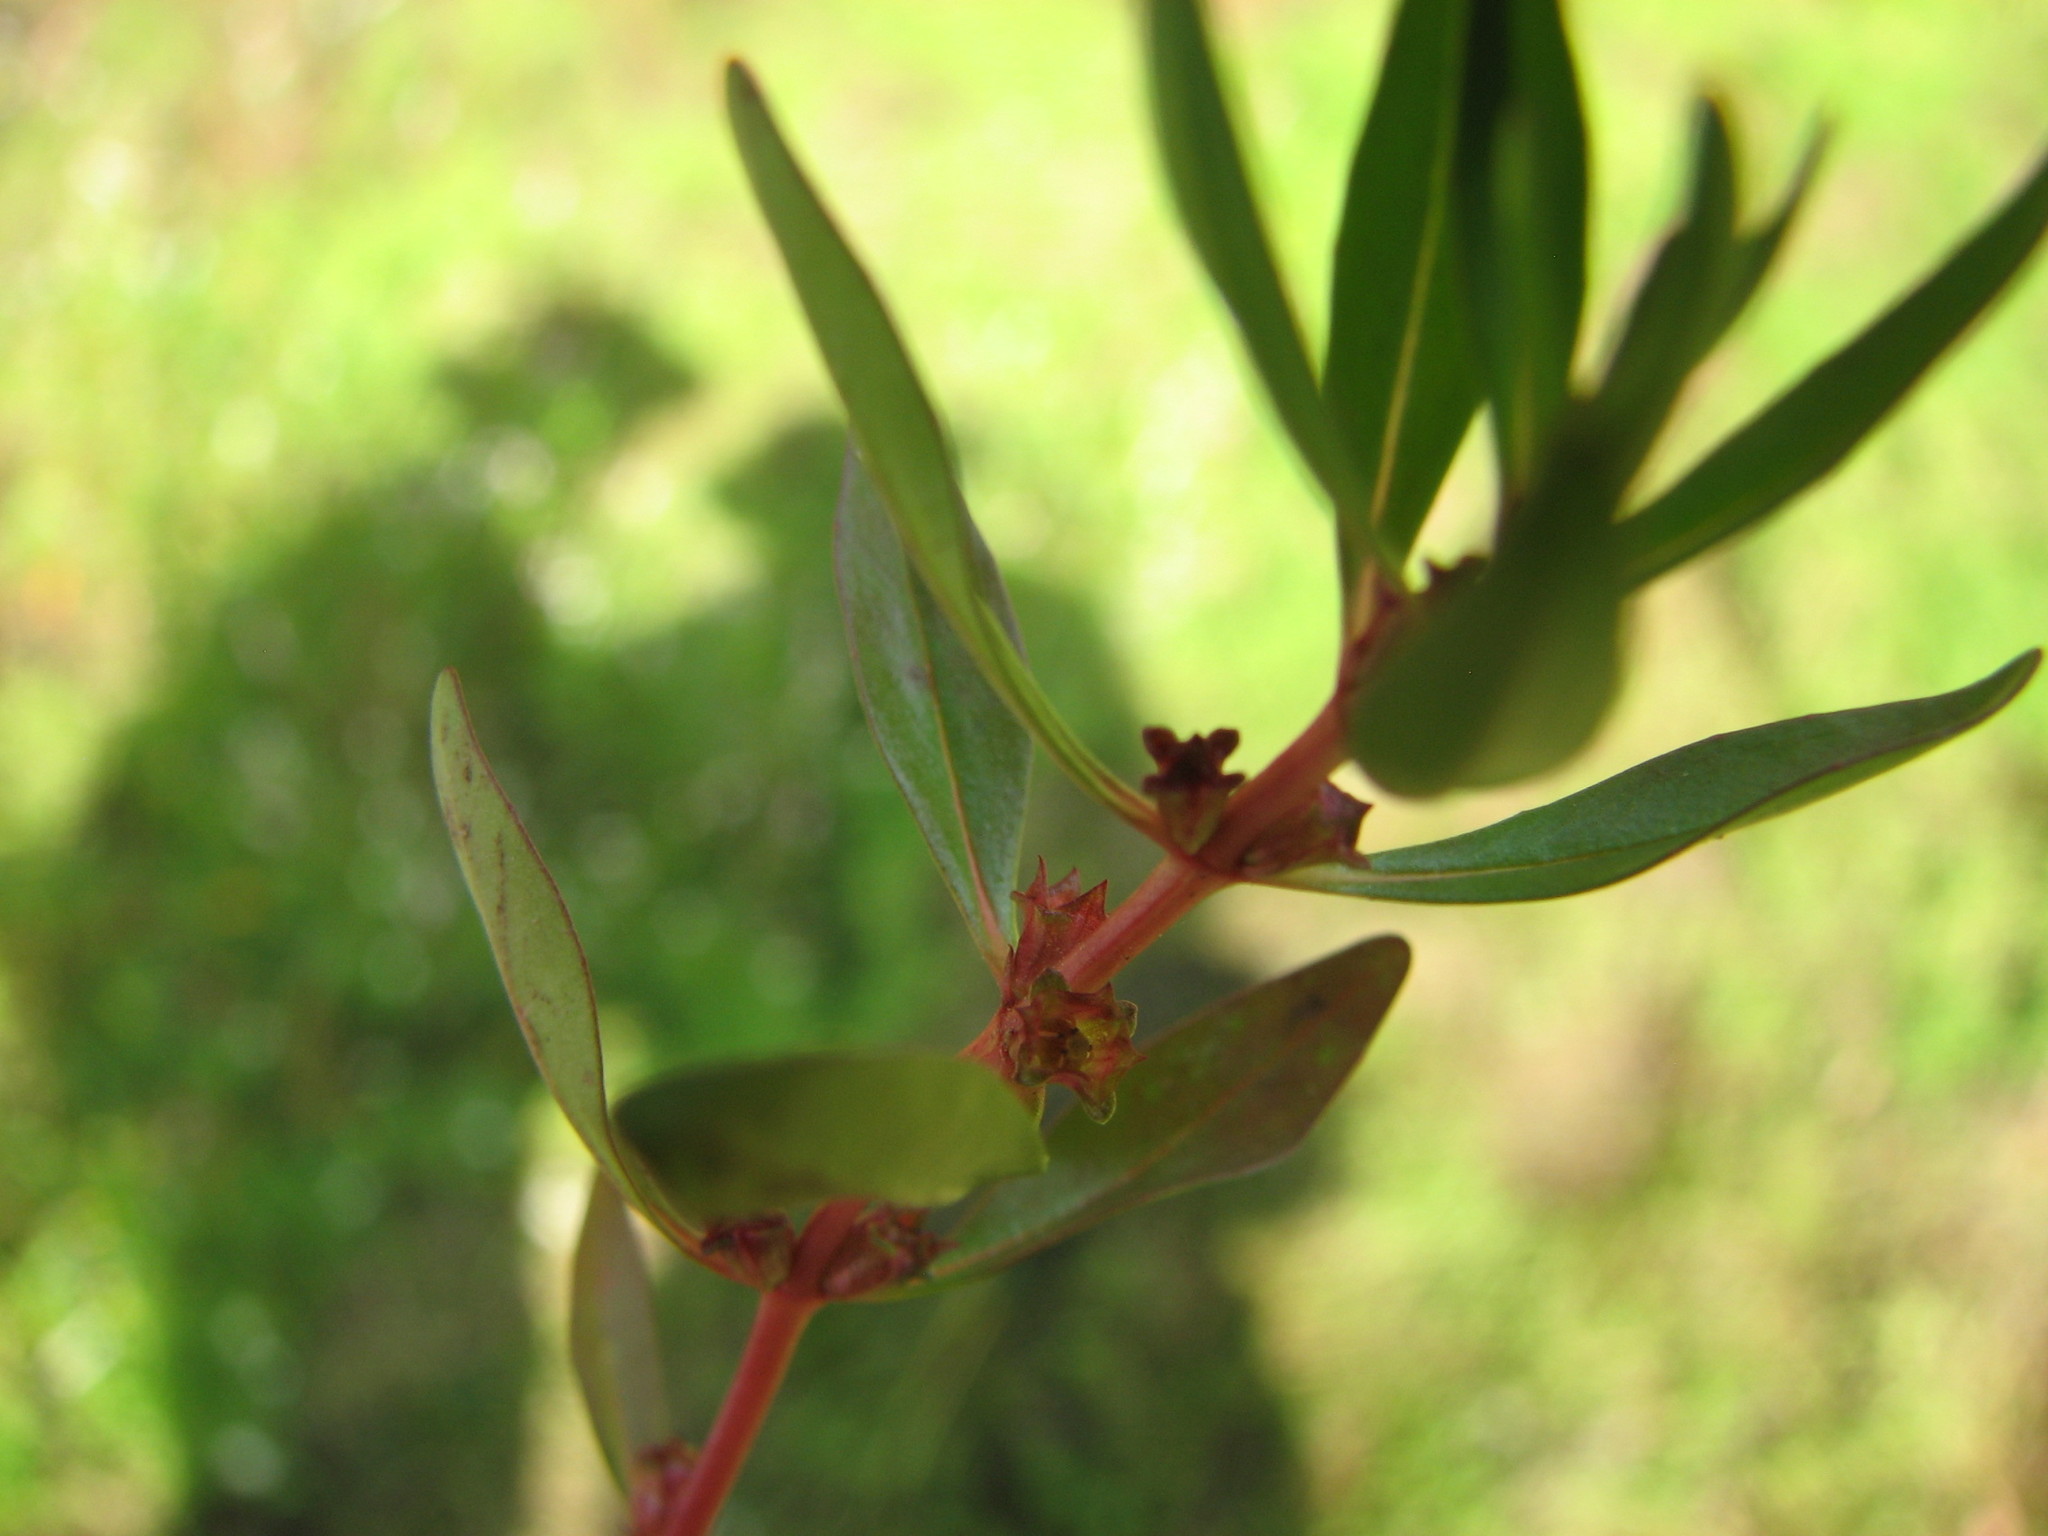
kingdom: Plantae
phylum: Tracheophyta
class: Magnoliopsida
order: Myrtales
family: Lythraceae
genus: Rotala
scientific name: Rotala ramosior
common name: Lowland rotala
